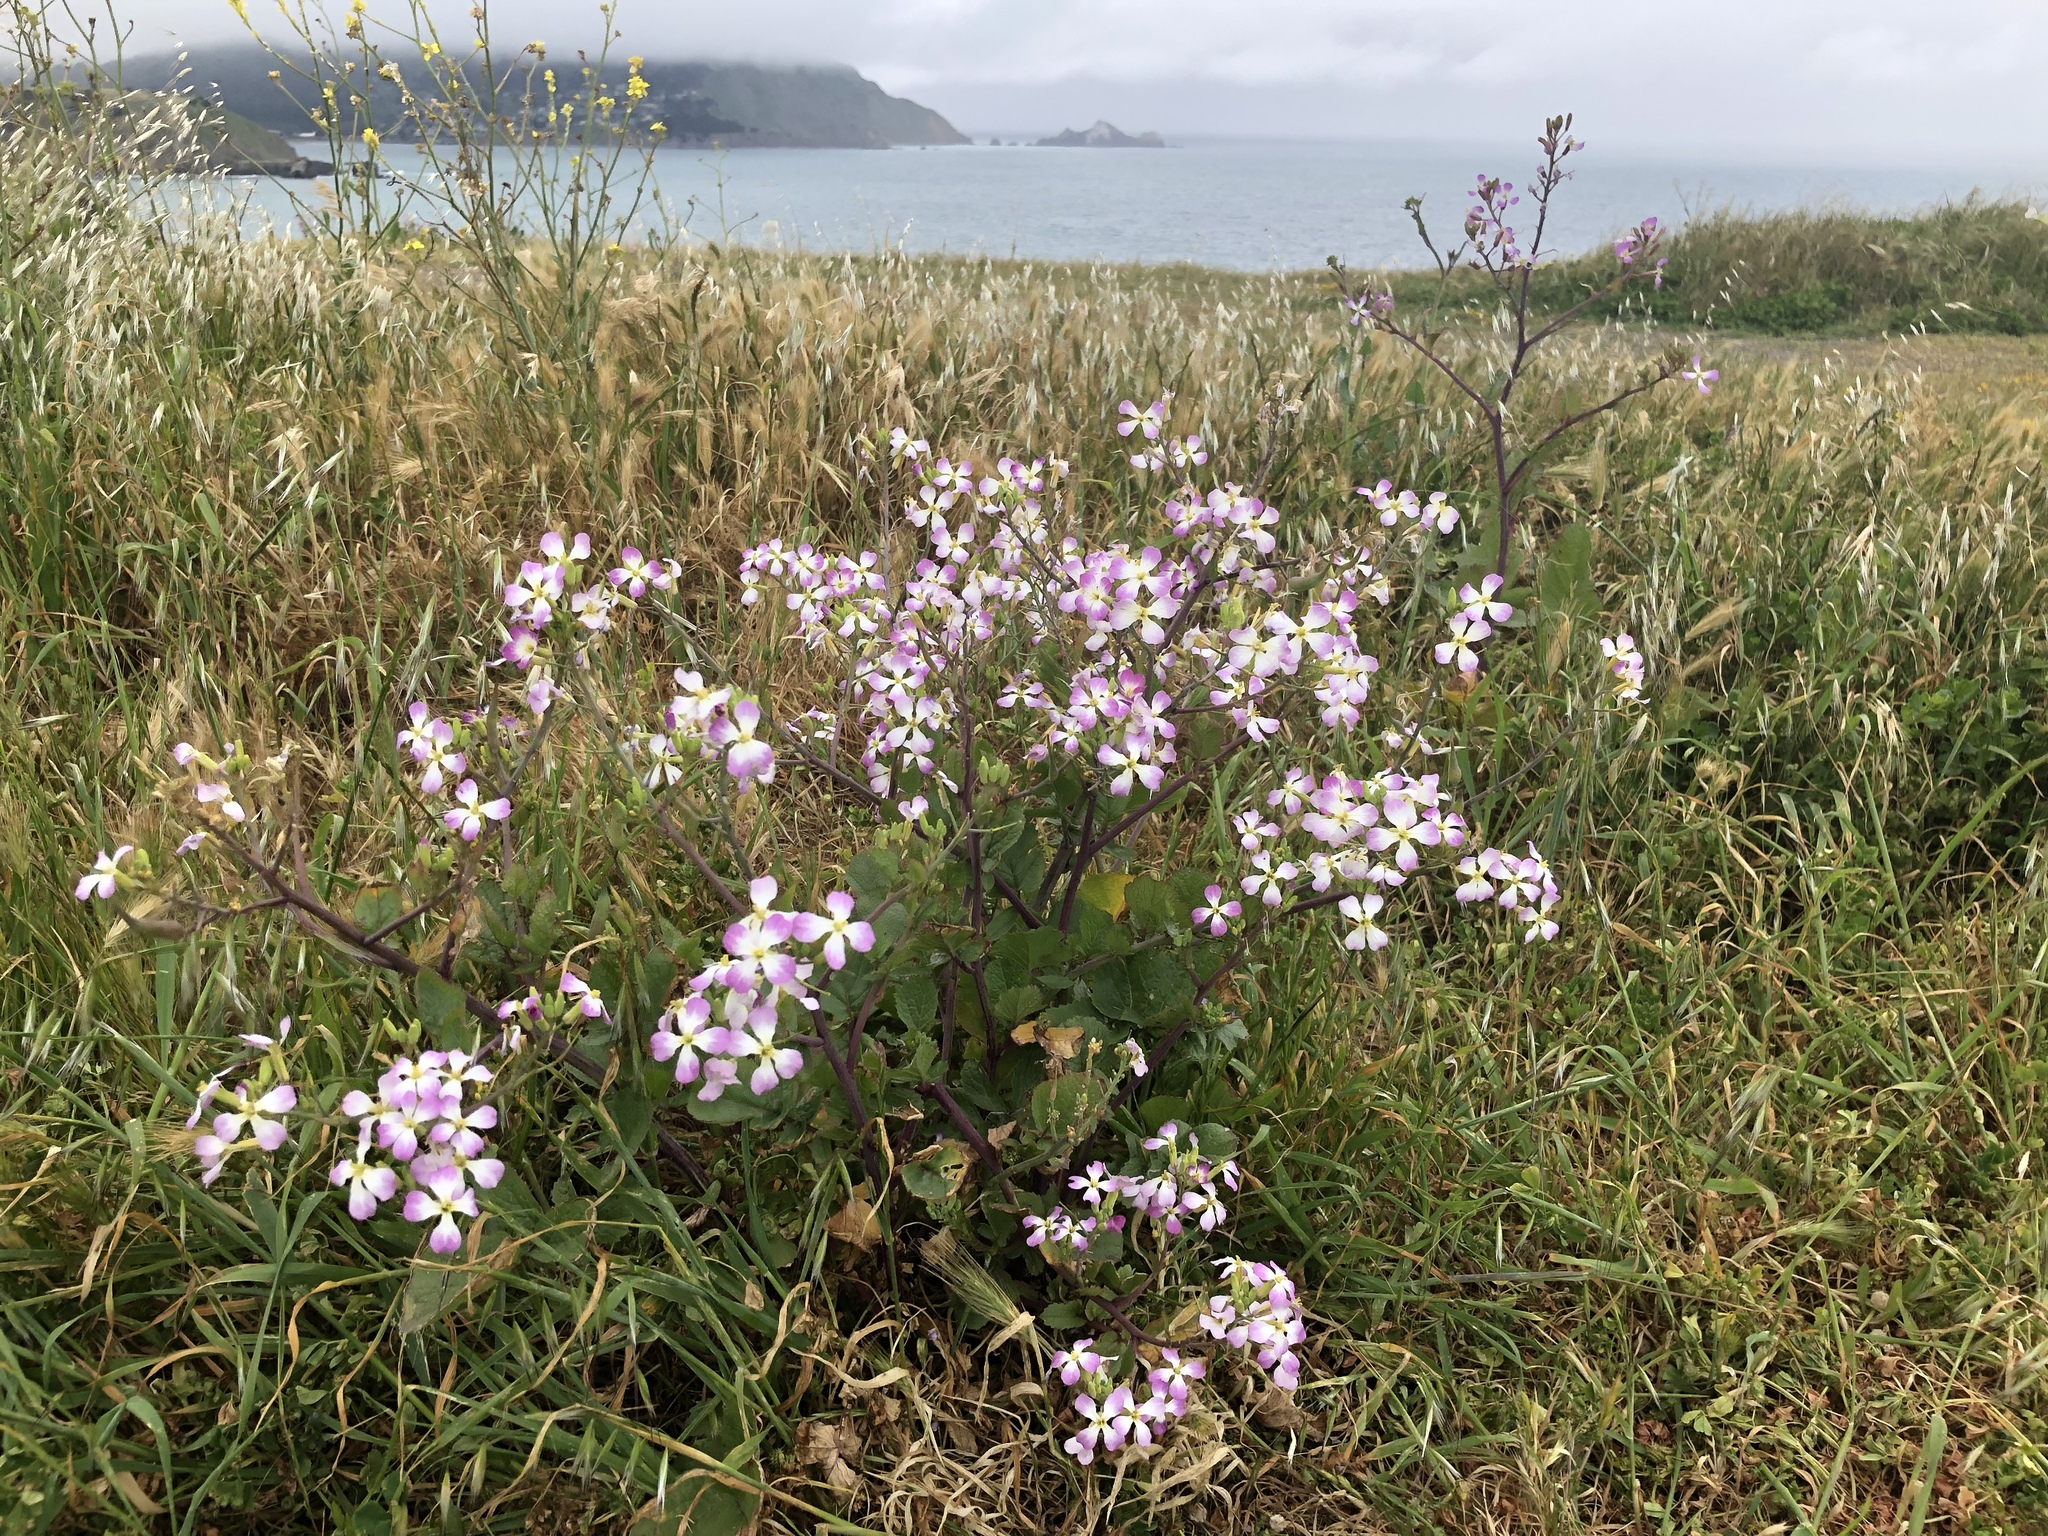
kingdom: Plantae
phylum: Tracheophyta
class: Magnoliopsida
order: Brassicales
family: Brassicaceae
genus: Raphanus
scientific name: Raphanus sativus
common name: Cultivated radish
